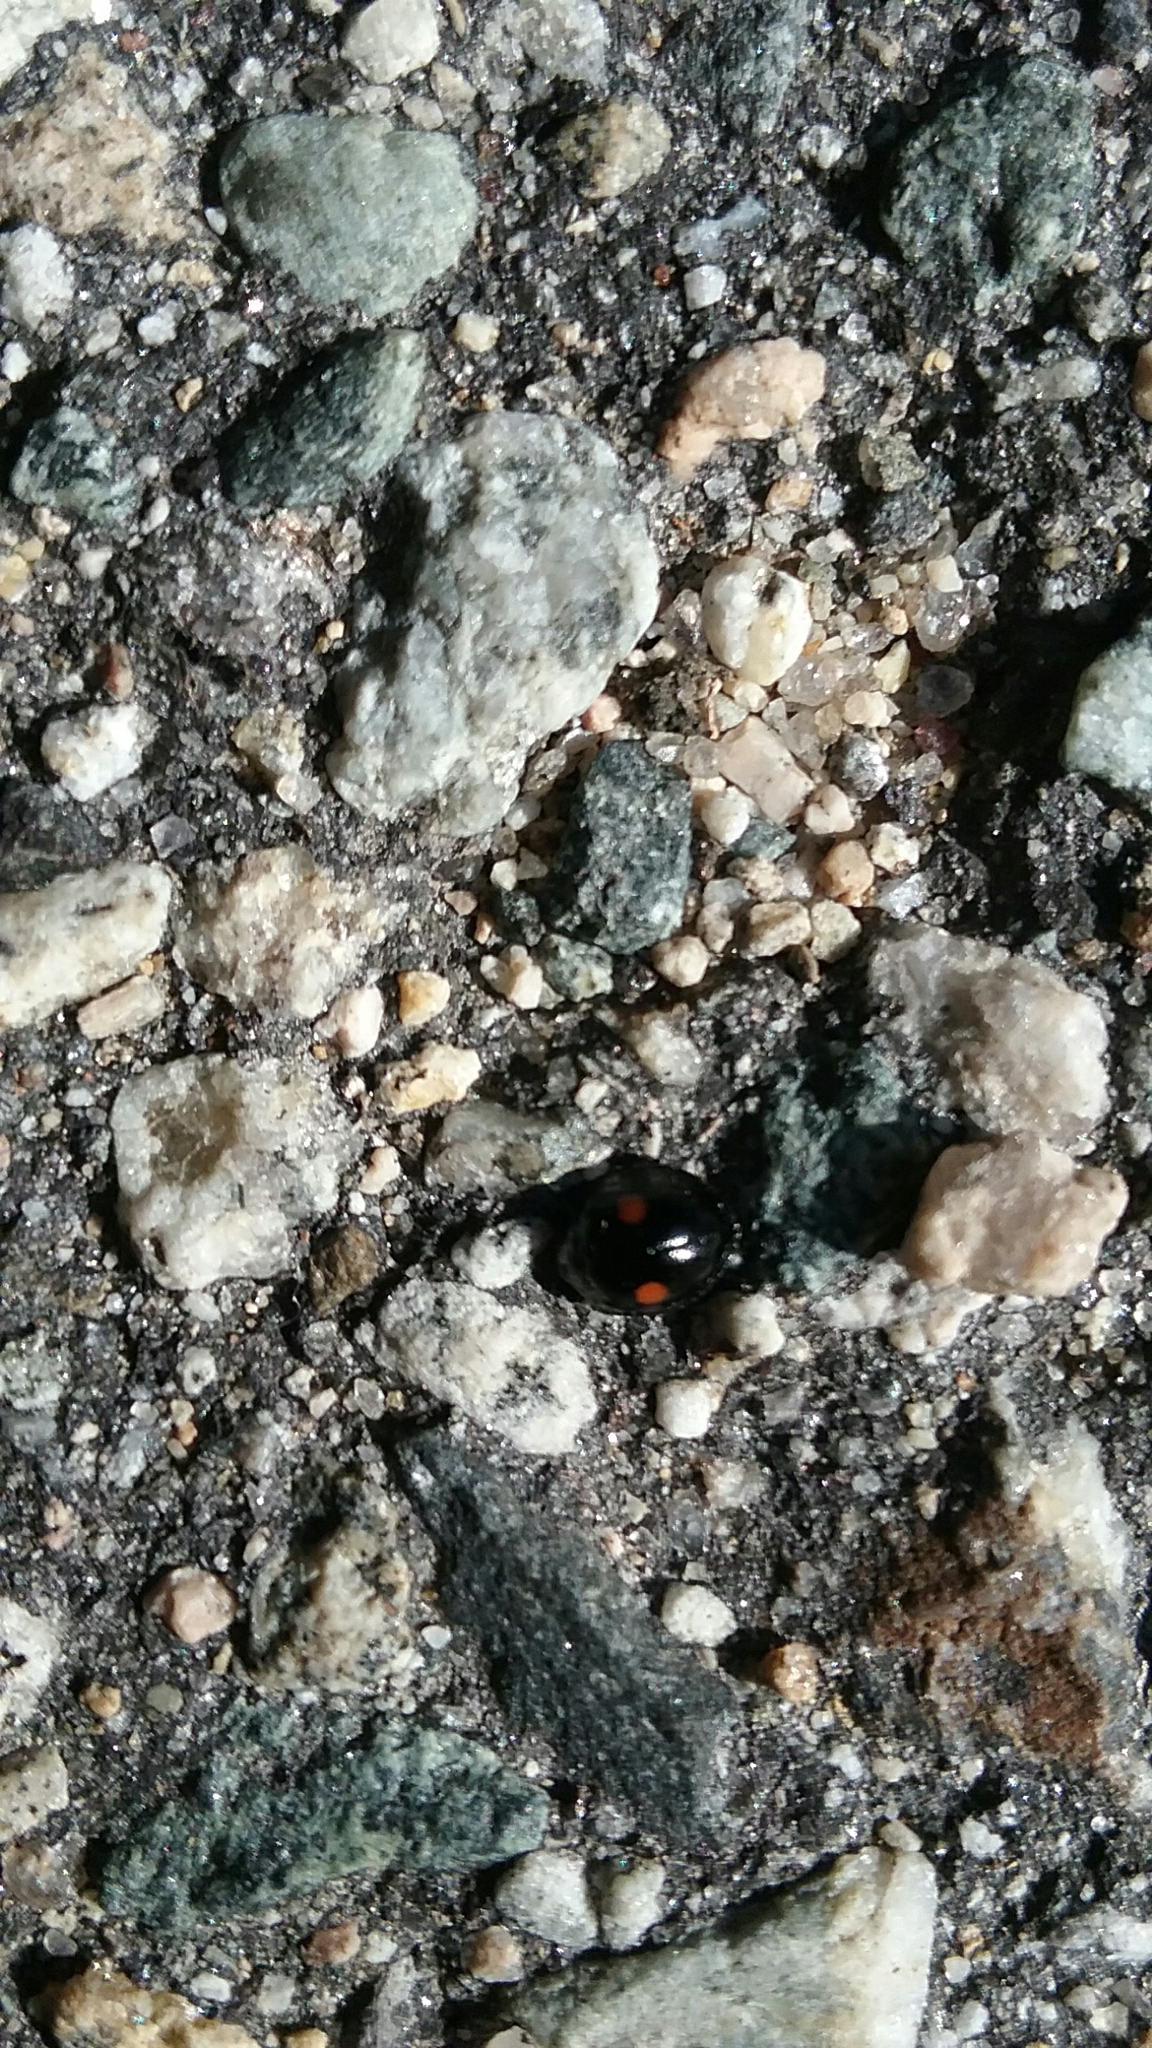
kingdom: Animalia
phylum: Arthropoda
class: Insecta
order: Coleoptera
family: Coccinellidae
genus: Chilocorus
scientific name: Chilocorus stigma
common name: Twicestabbed lady beetle
